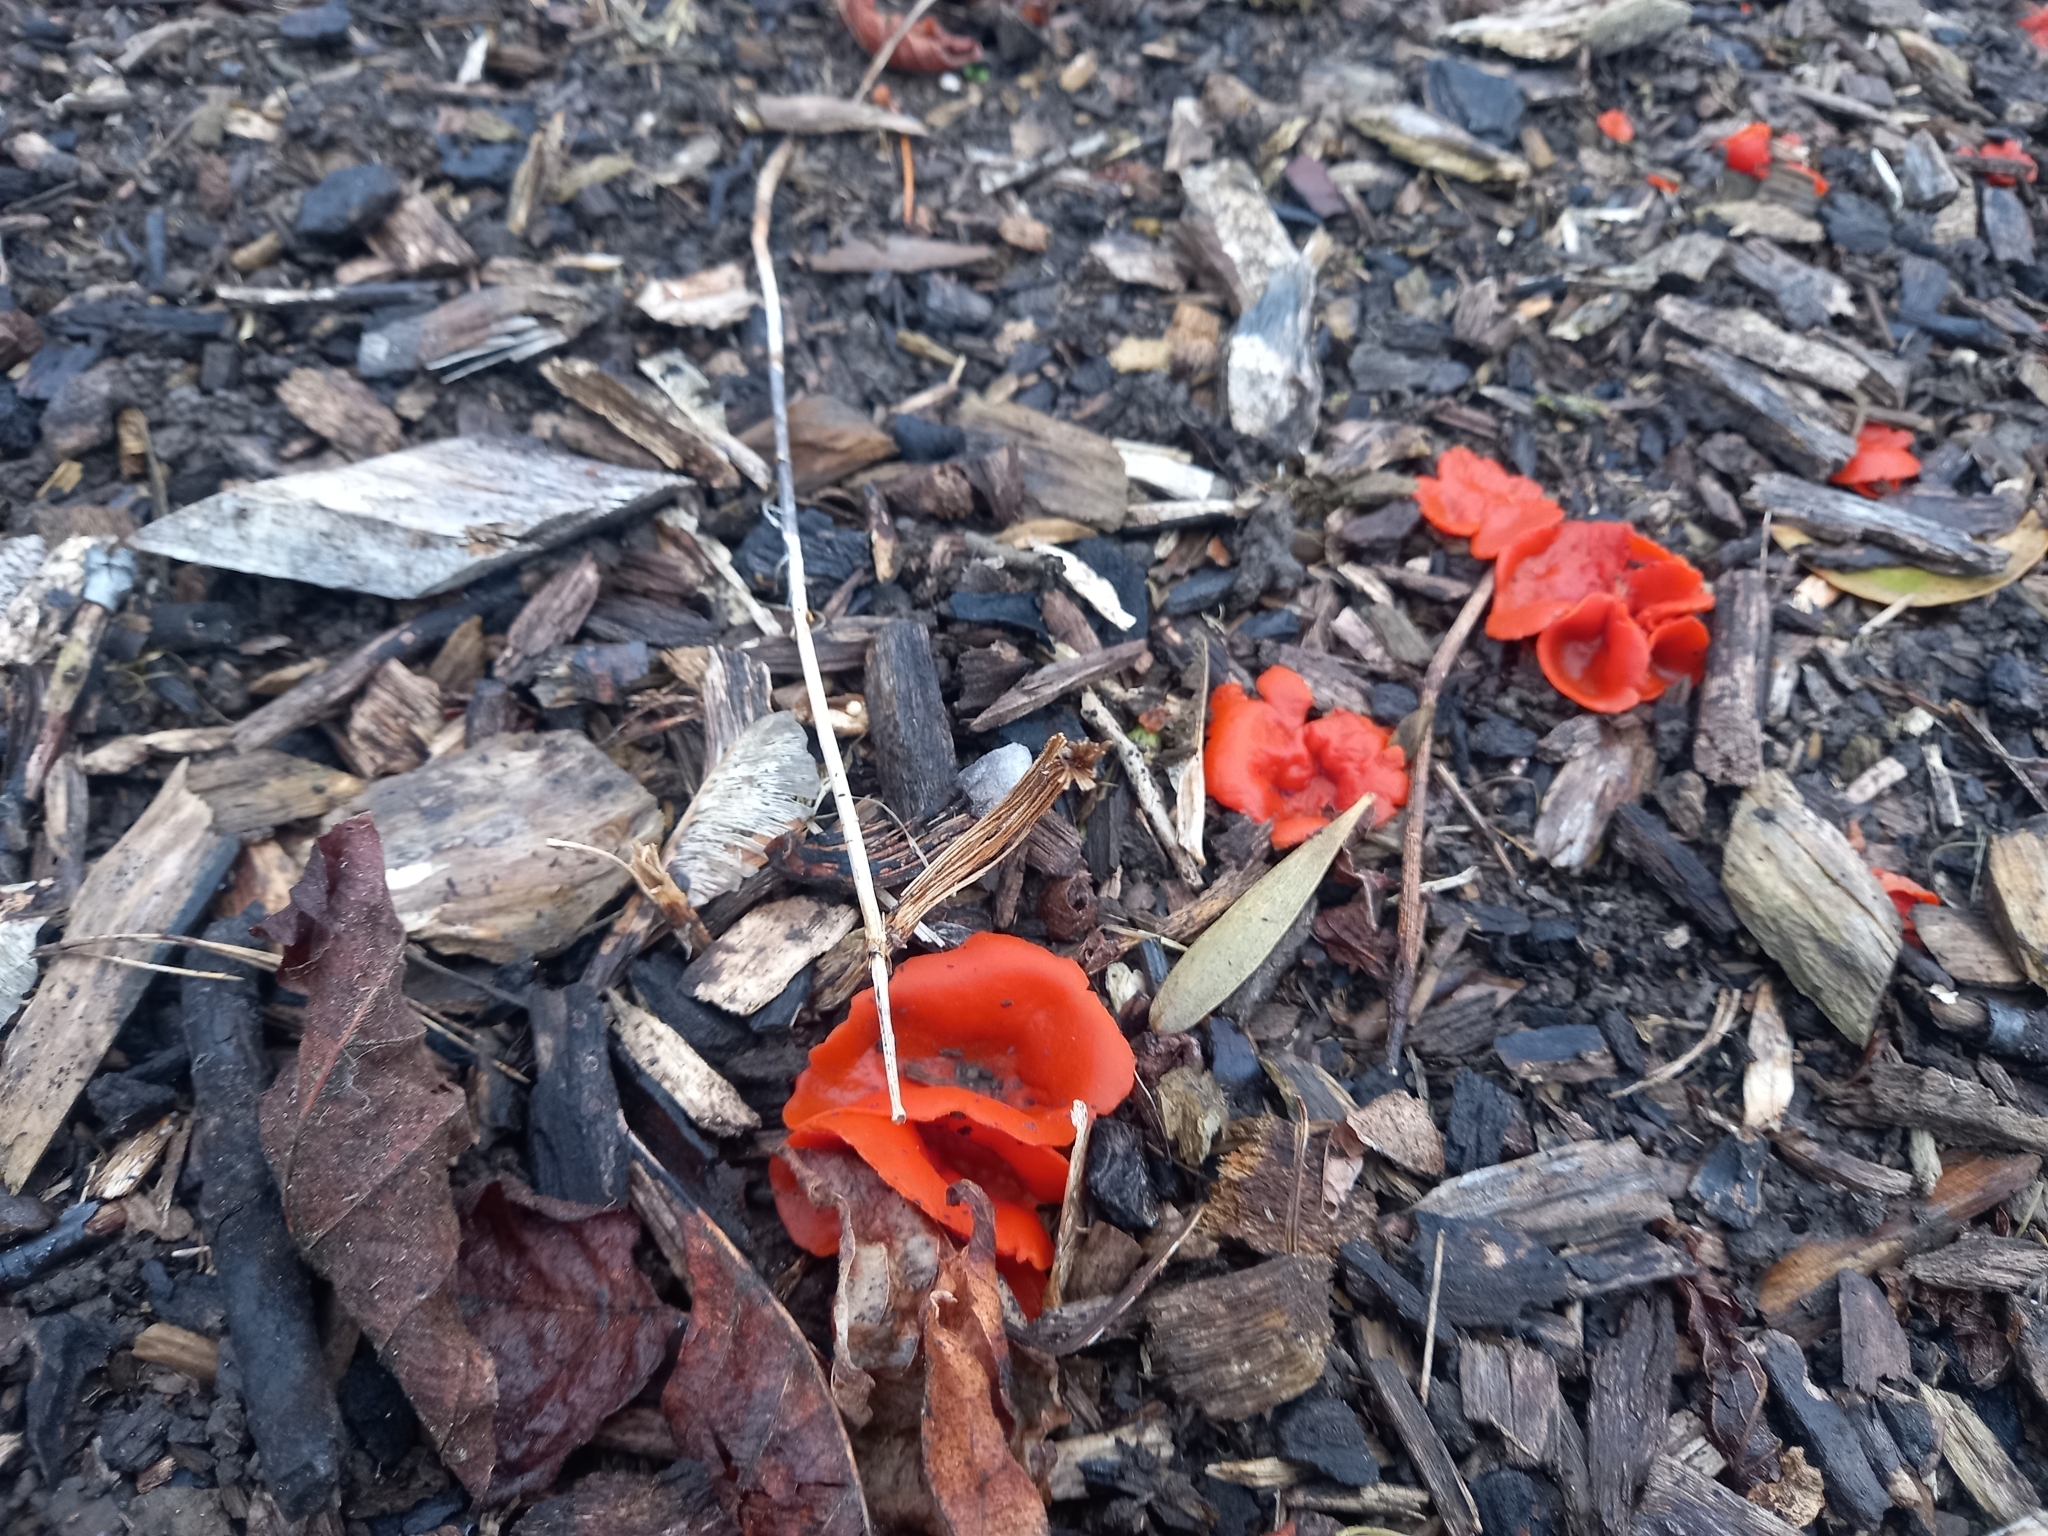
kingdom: Fungi
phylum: Ascomycota
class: Pezizomycetes
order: Pezizales
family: Pyronemataceae
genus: Aleuria
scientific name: Aleuria aurantia
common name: Orange peel fungus
